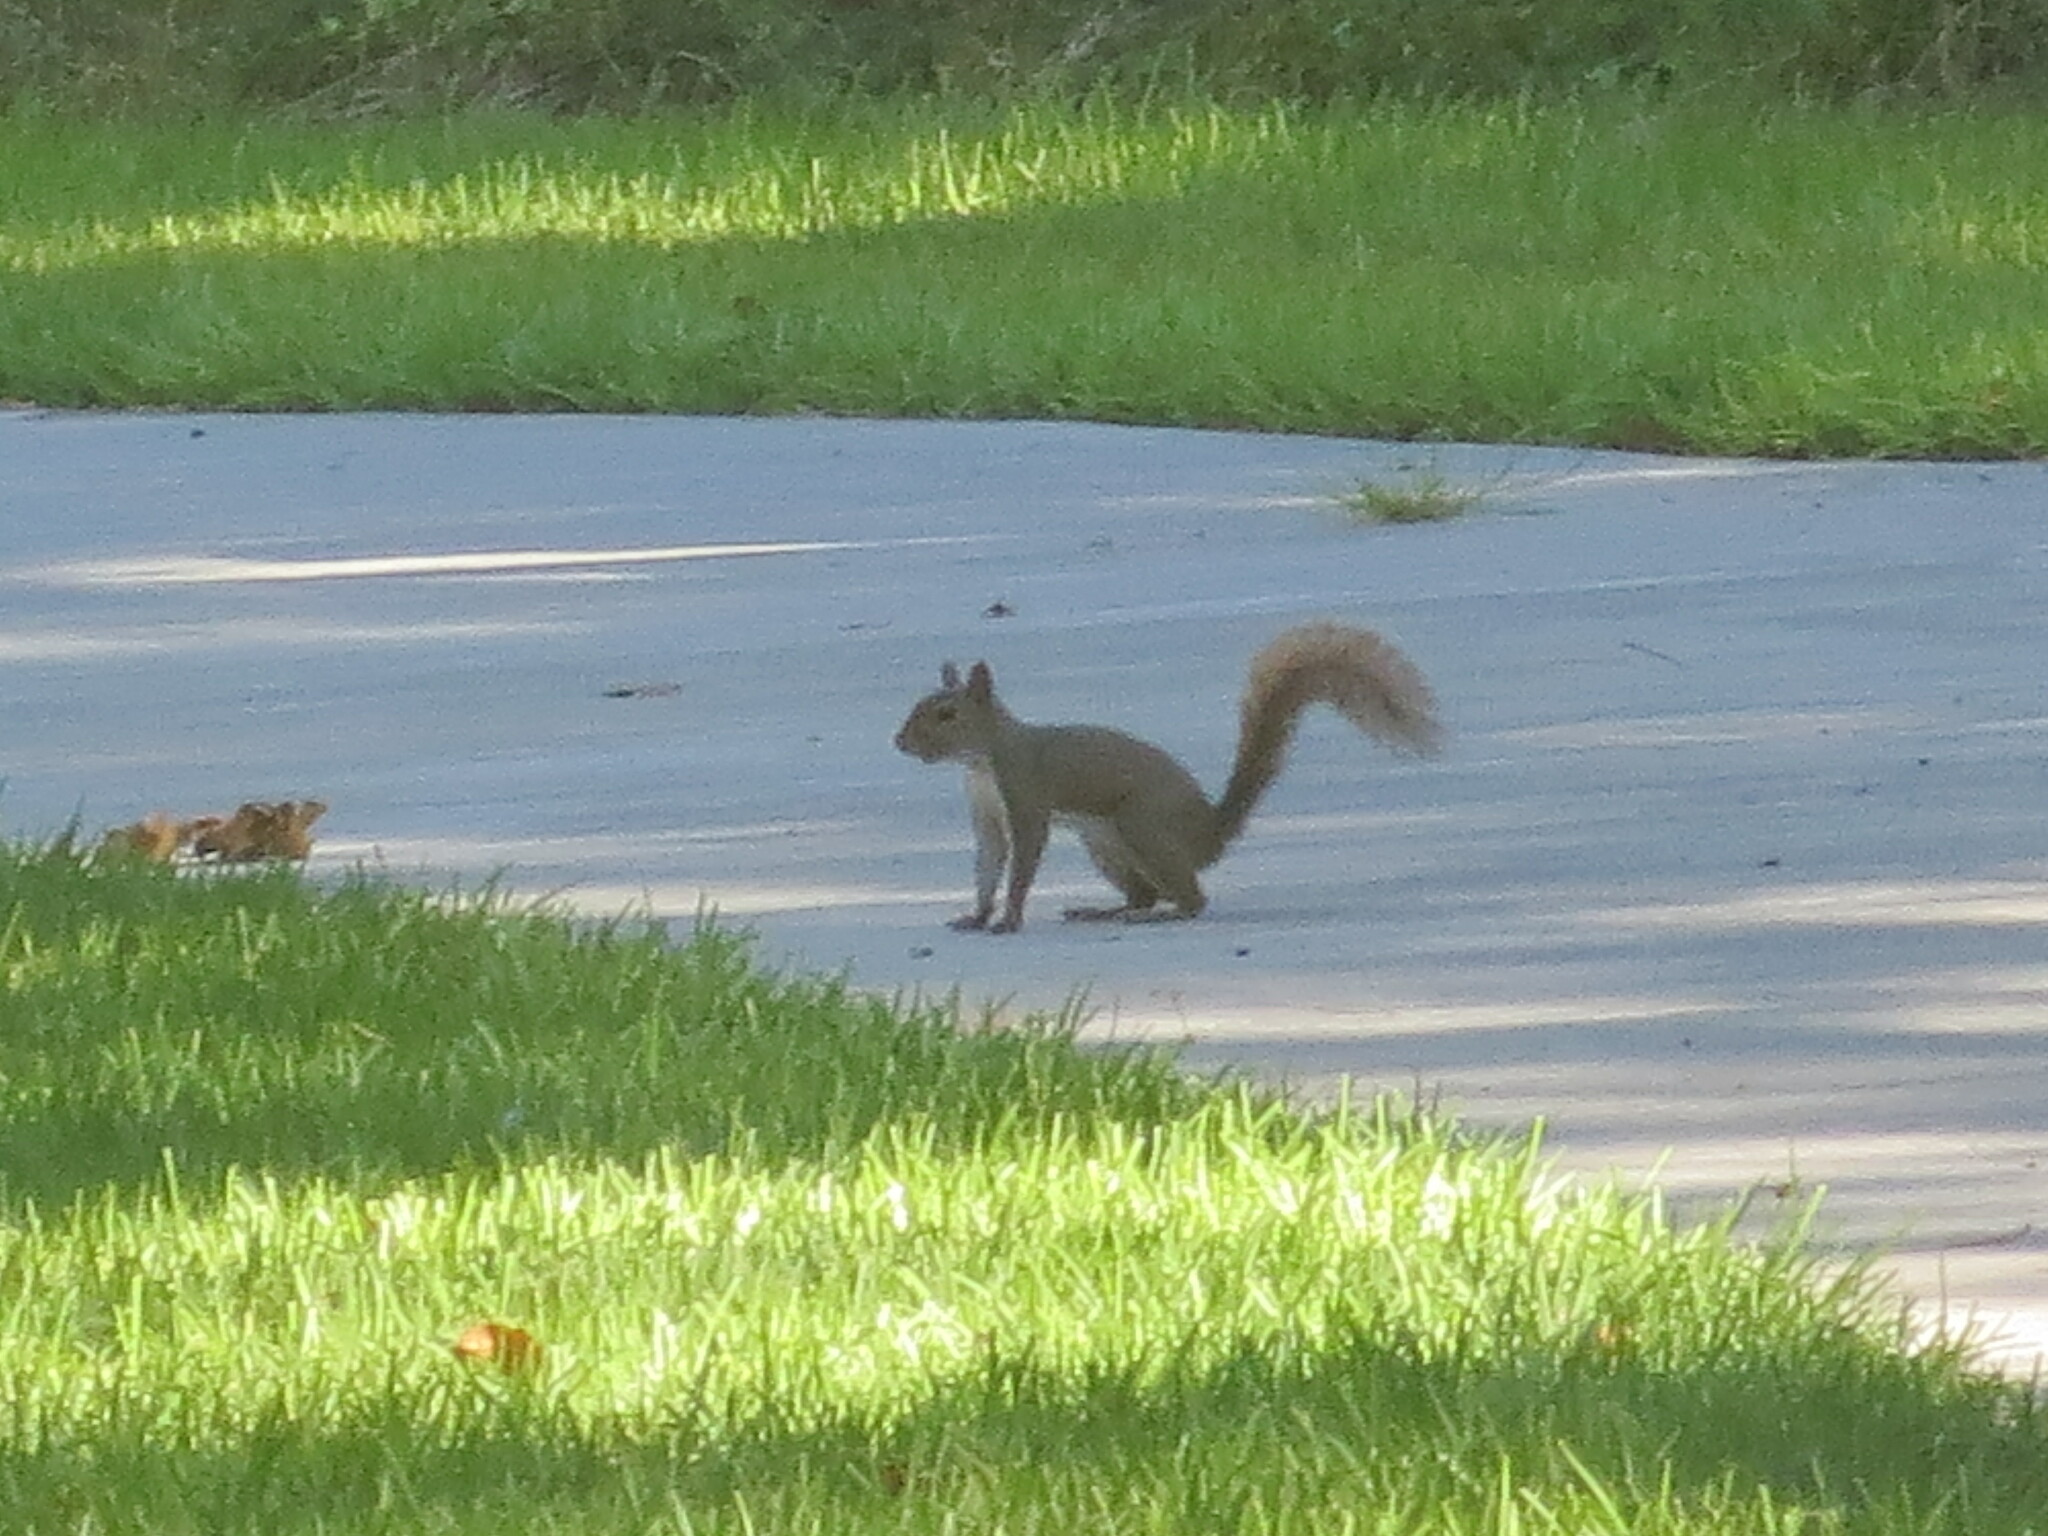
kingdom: Animalia
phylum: Chordata
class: Mammalia
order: Rodentia
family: Sciuridae
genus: Sciurus
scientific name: Sciurus carolinensis
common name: Eastern gray squirrel
